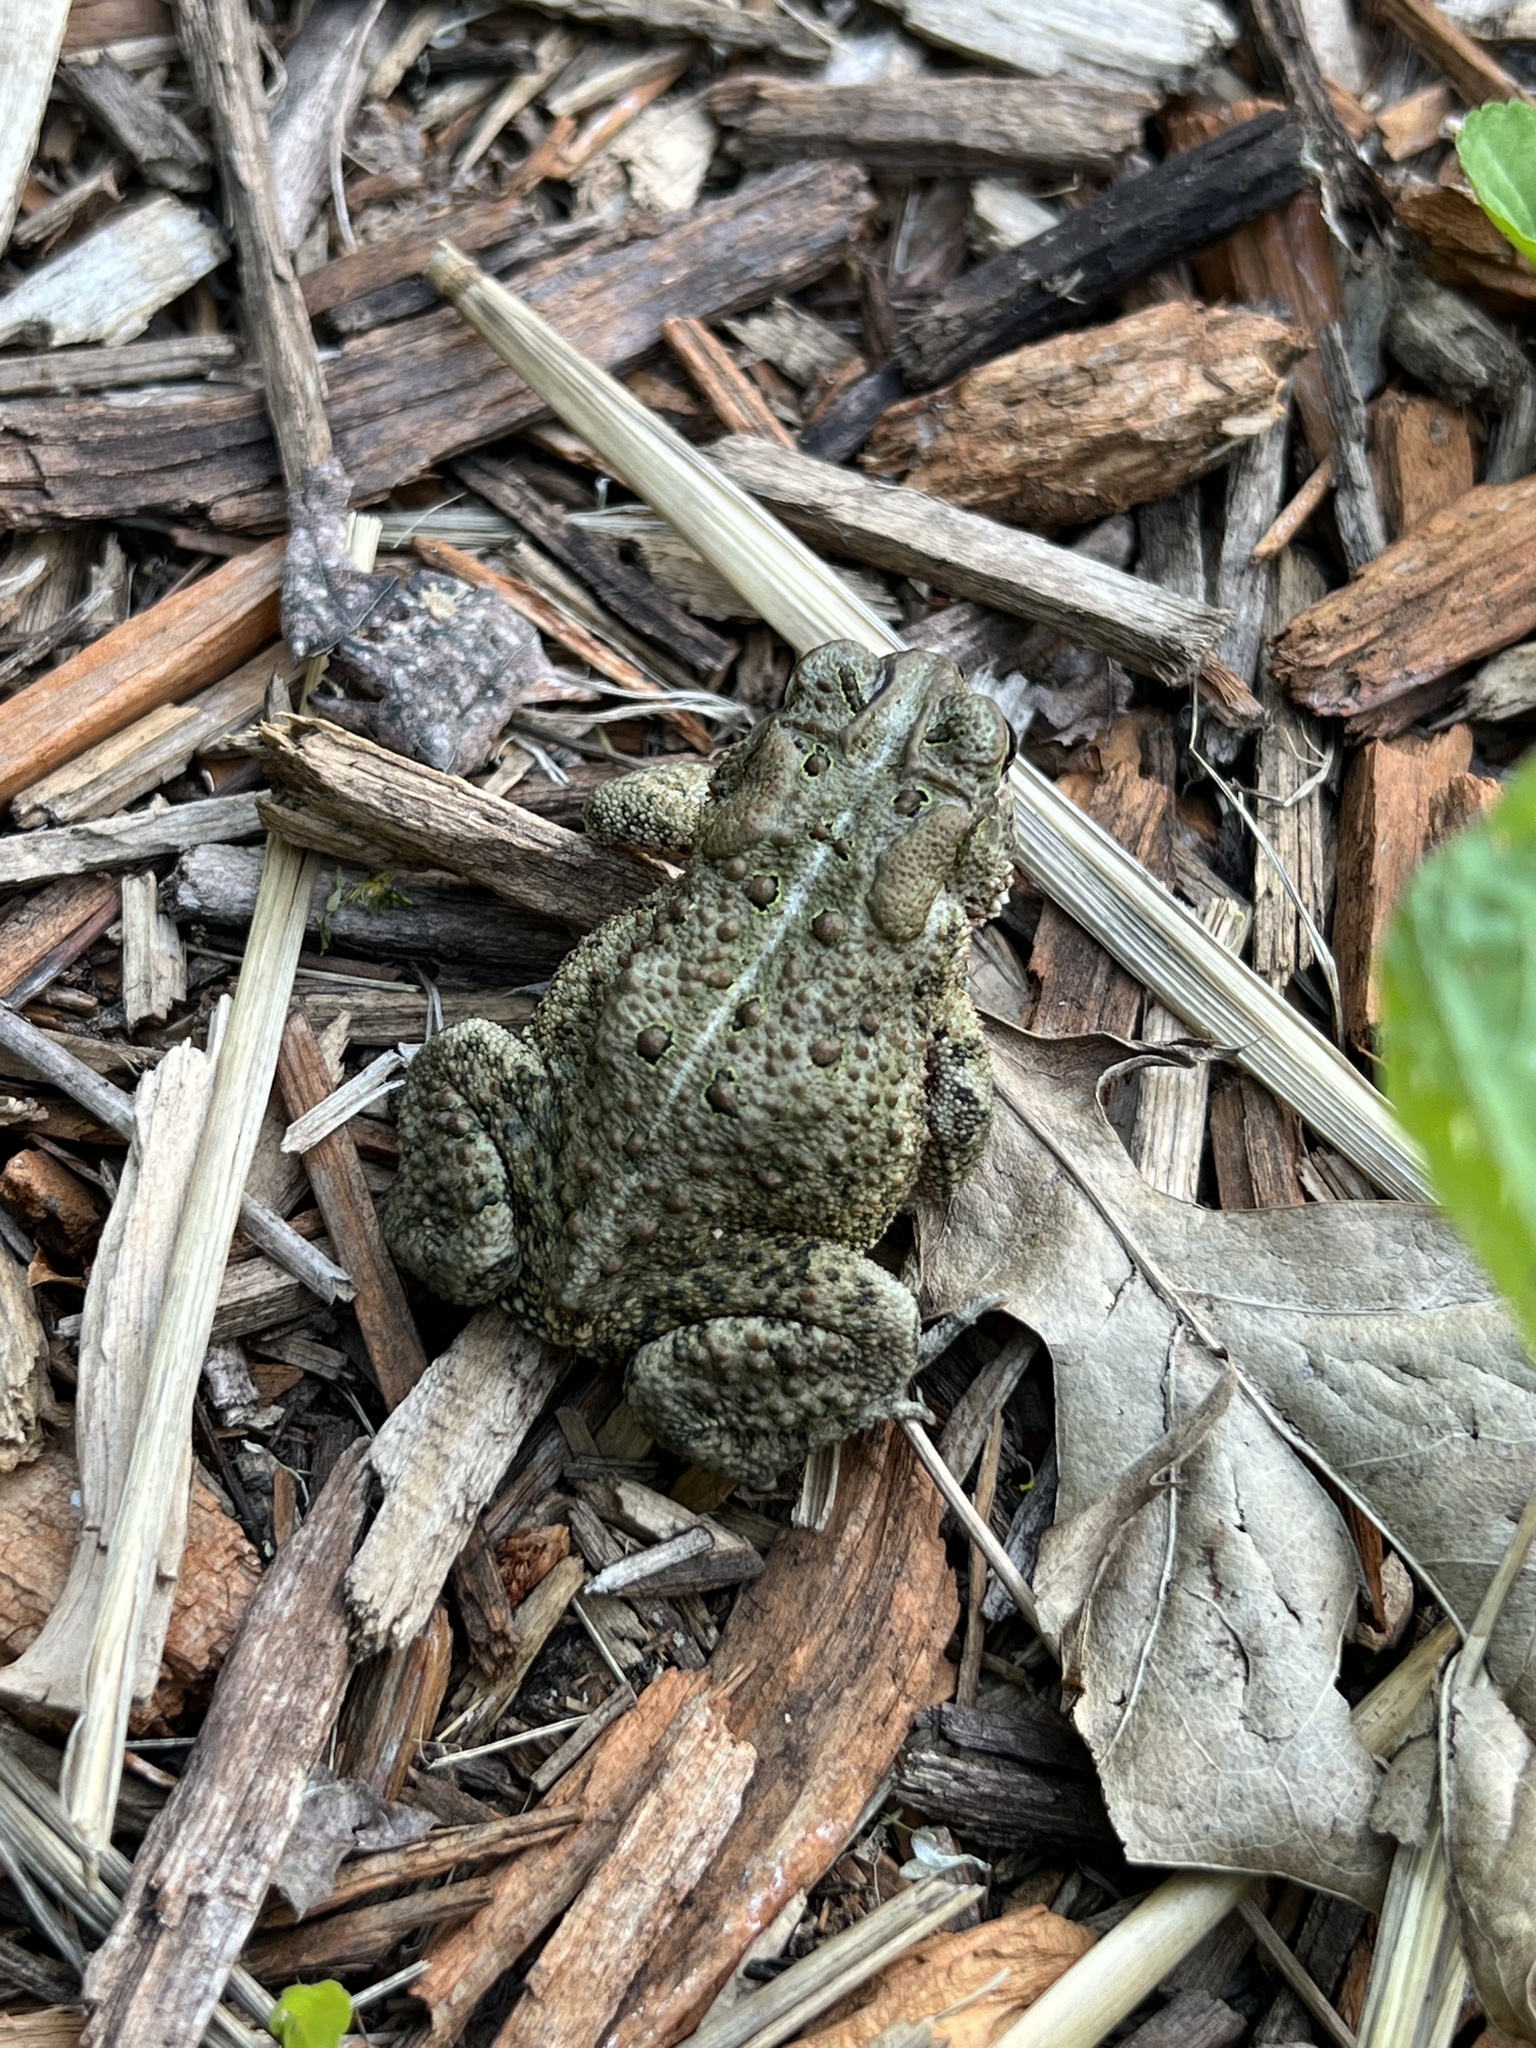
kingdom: Animalia
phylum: Chordata
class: Amphibia
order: Anura
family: Bufonidae
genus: Anaxyrus
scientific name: Anaxyrus americanus
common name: American toad
